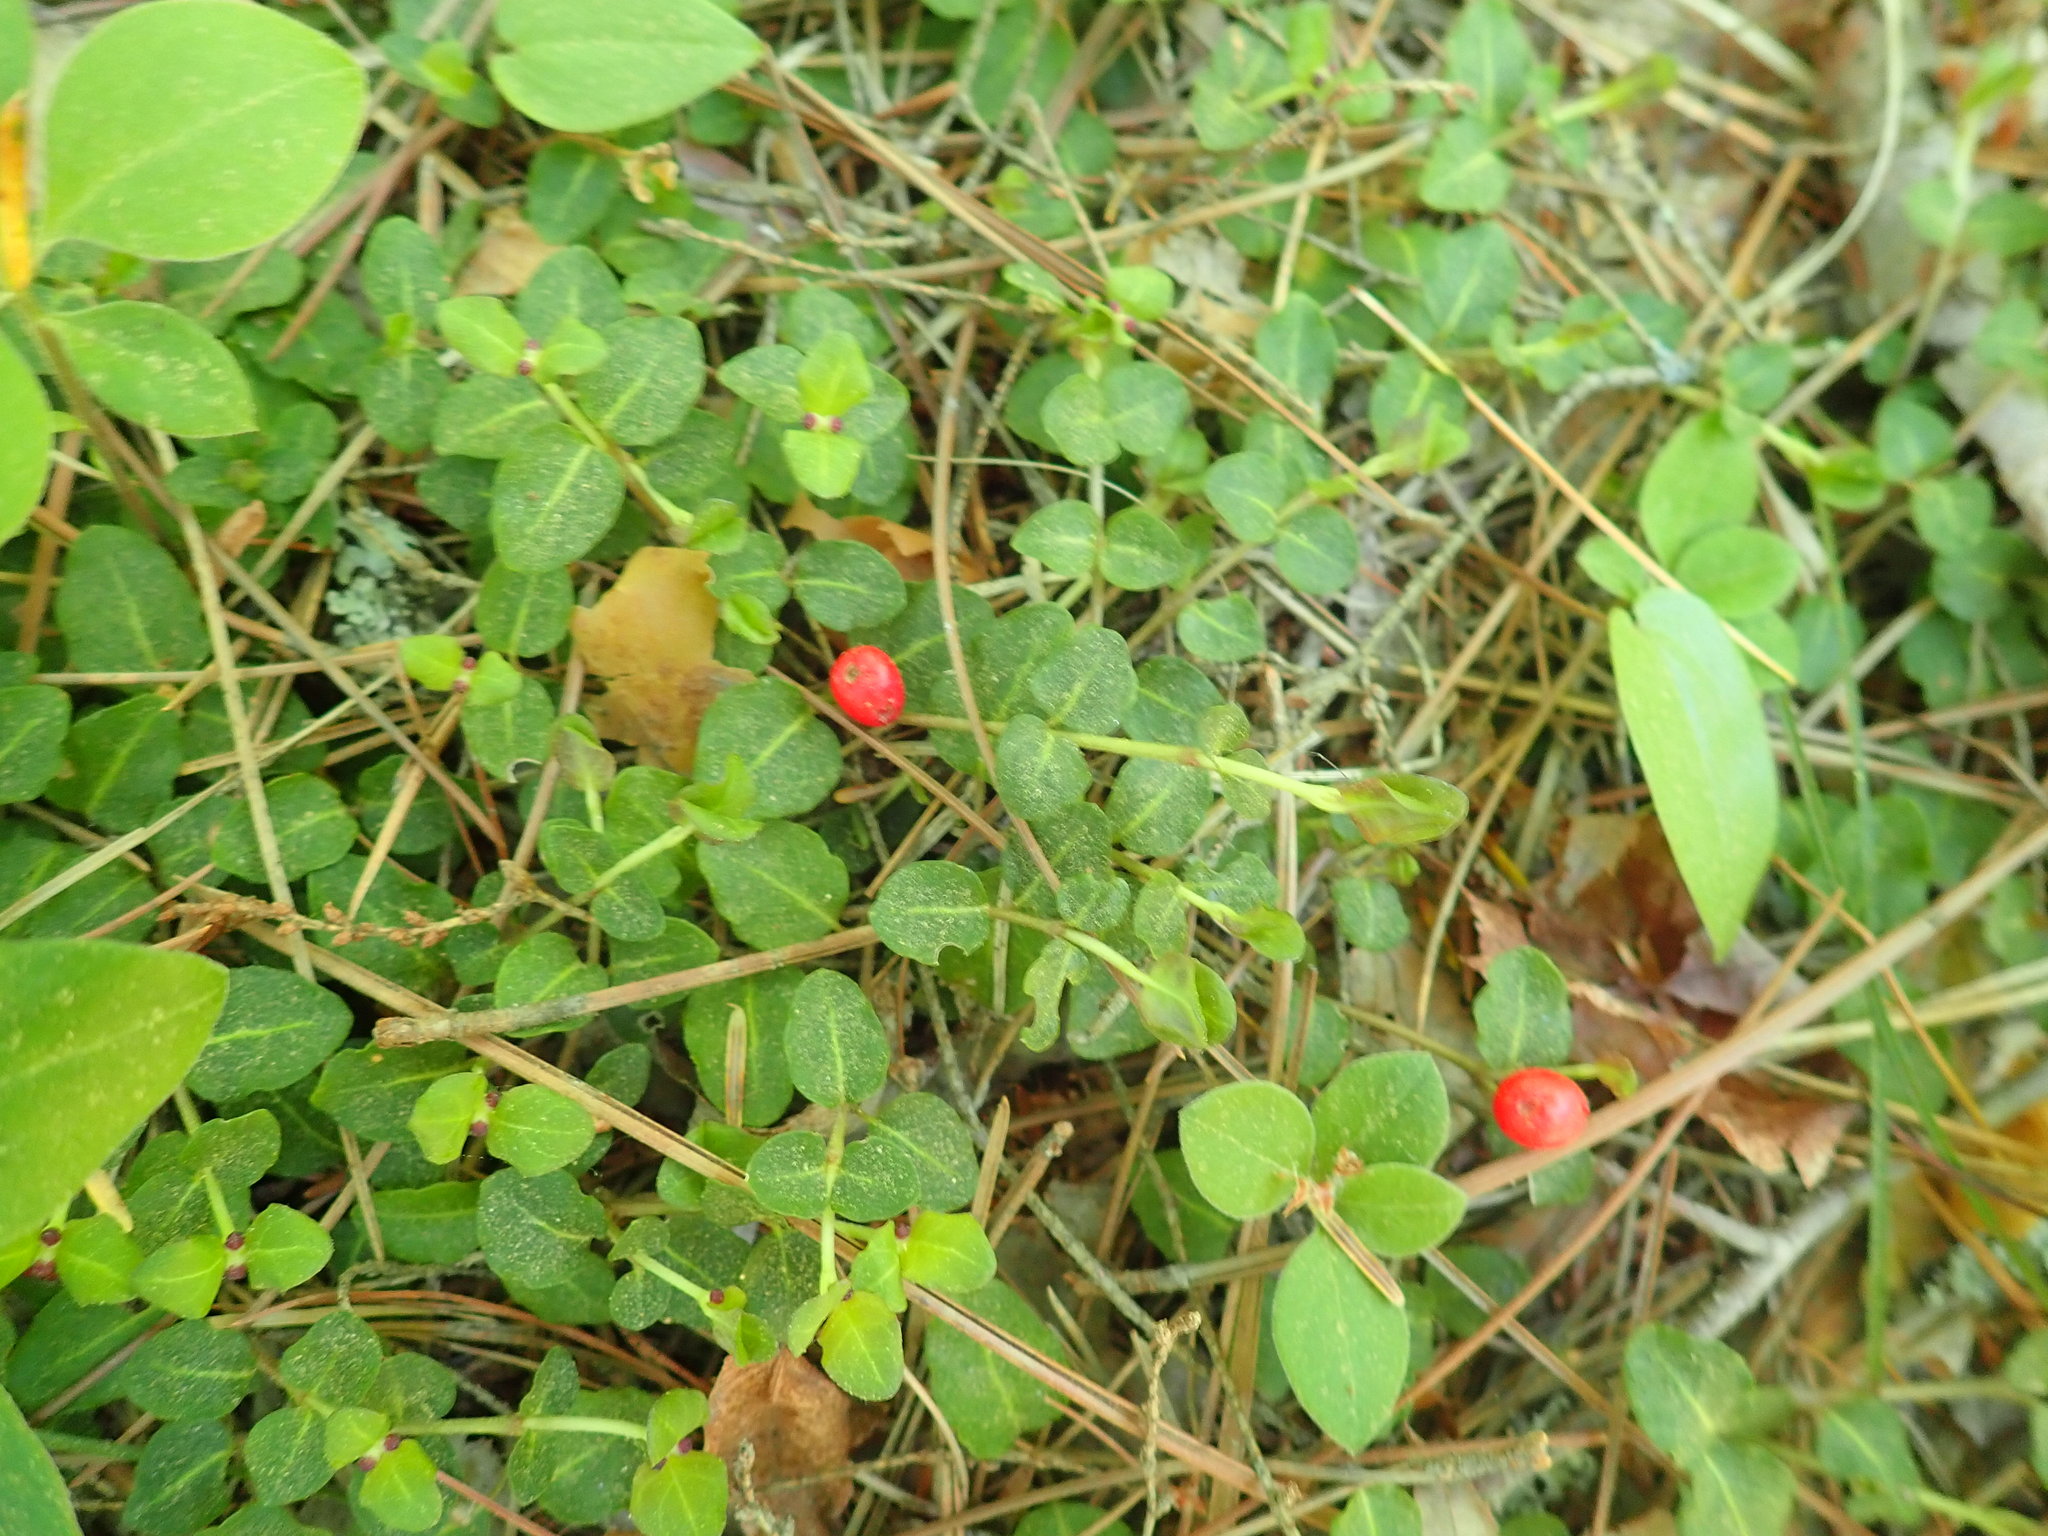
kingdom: Plantae
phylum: Tracheophyta
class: Magnoliopsida
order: Gentianales
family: Rubiaceae
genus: Mitchella
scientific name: Mitchella repens
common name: Partridge-berry
